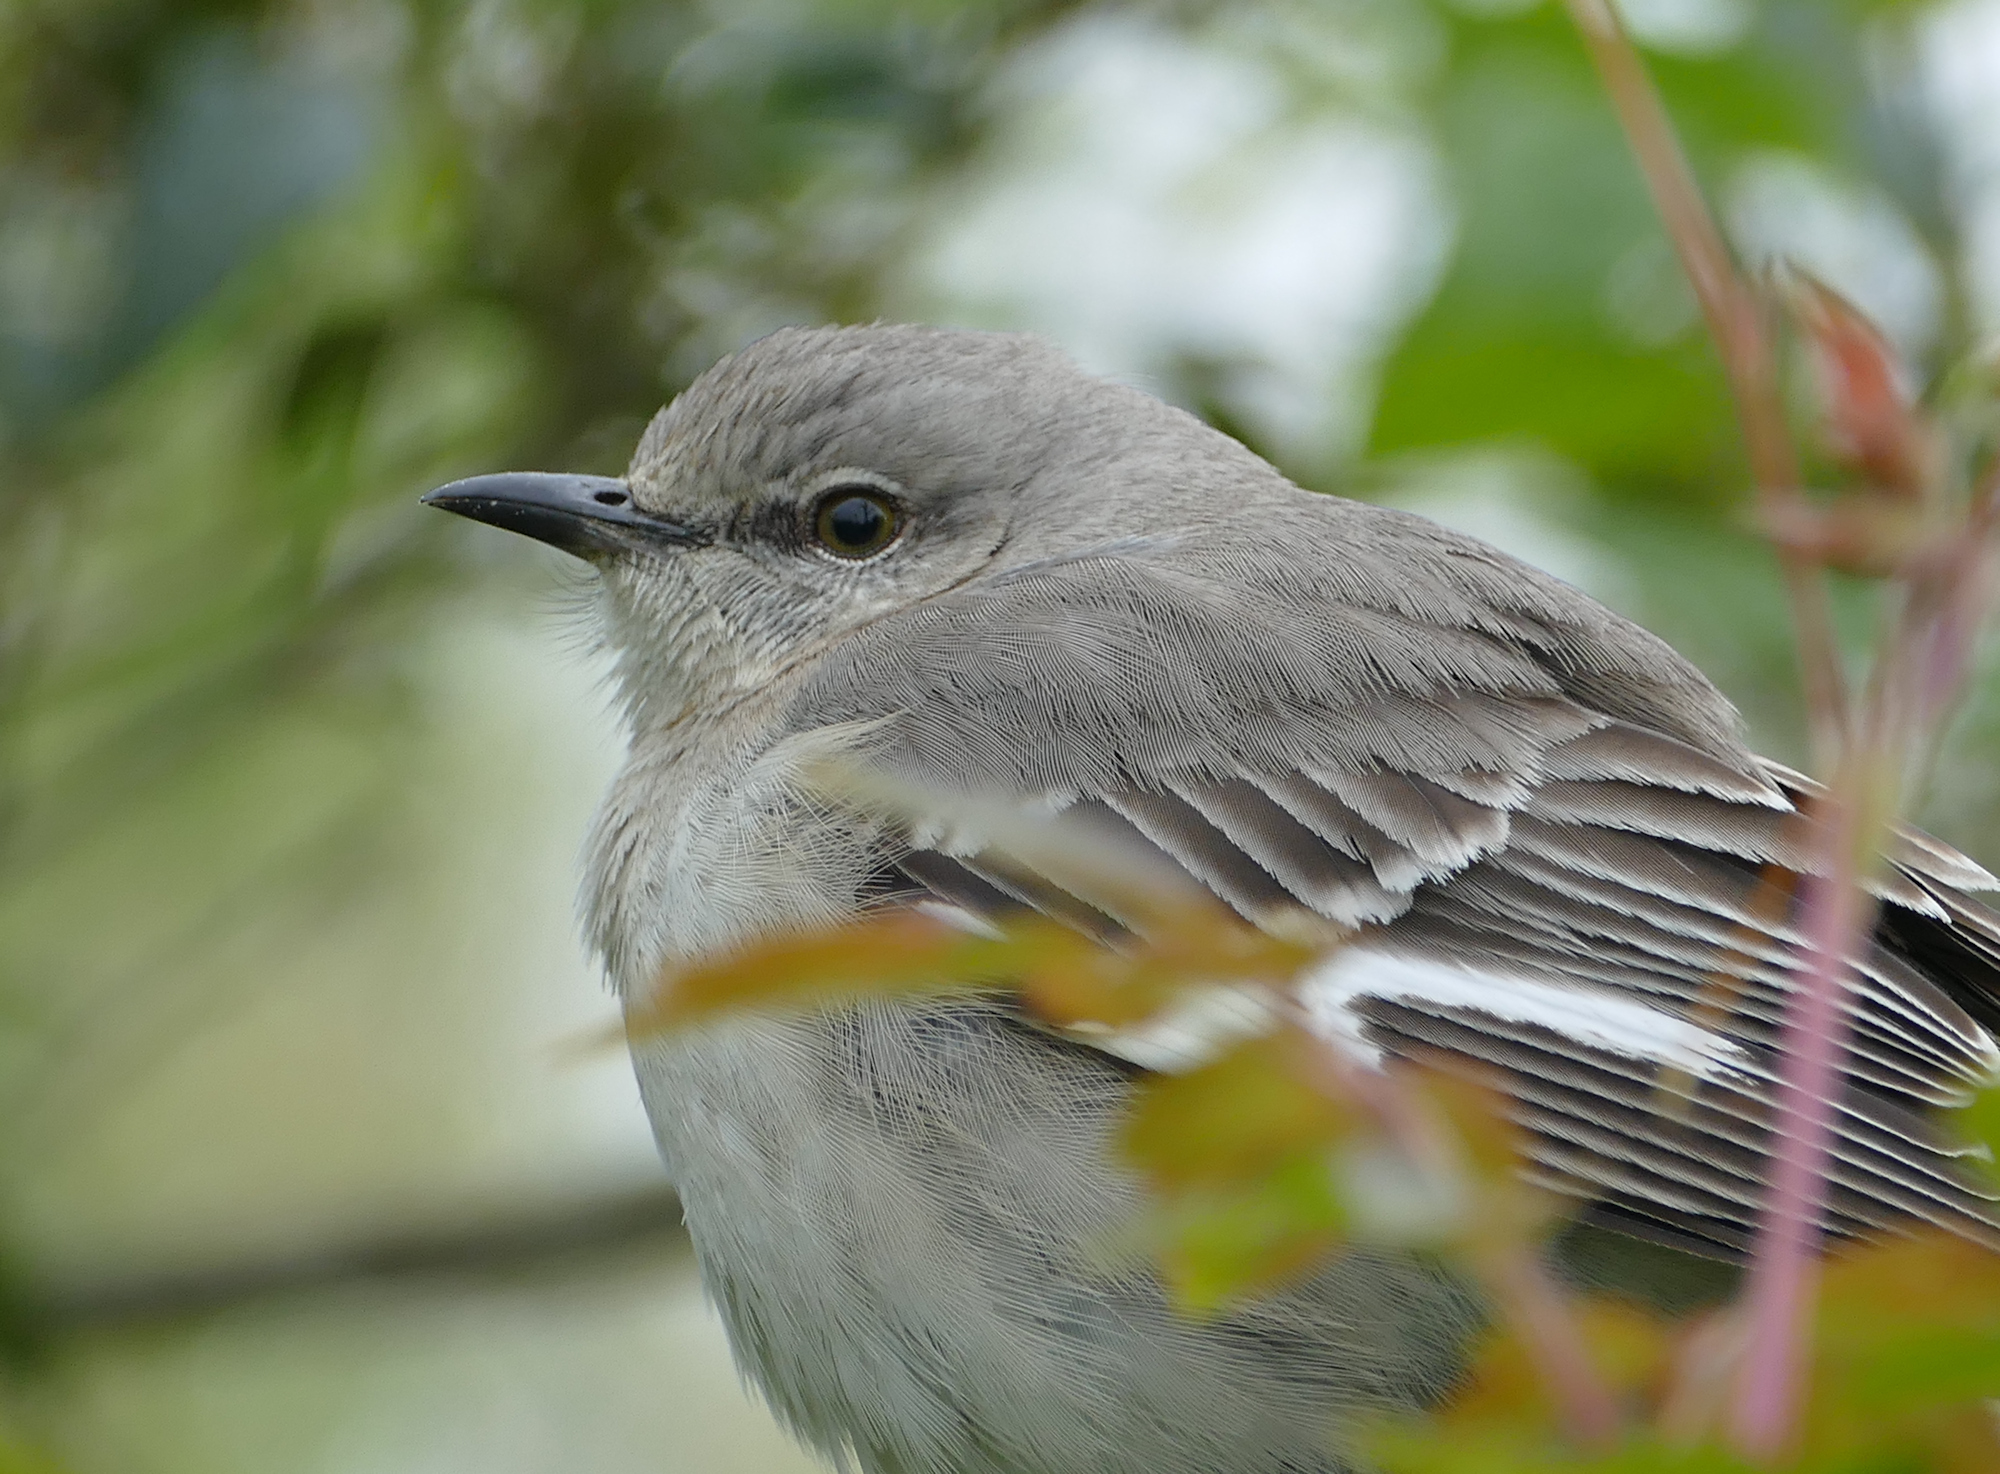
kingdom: Animalia
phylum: Chordata
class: Aves
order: Passeriformes
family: Mimidae
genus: Mimus
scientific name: Mimus polyglottos
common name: Northern mockingbird
